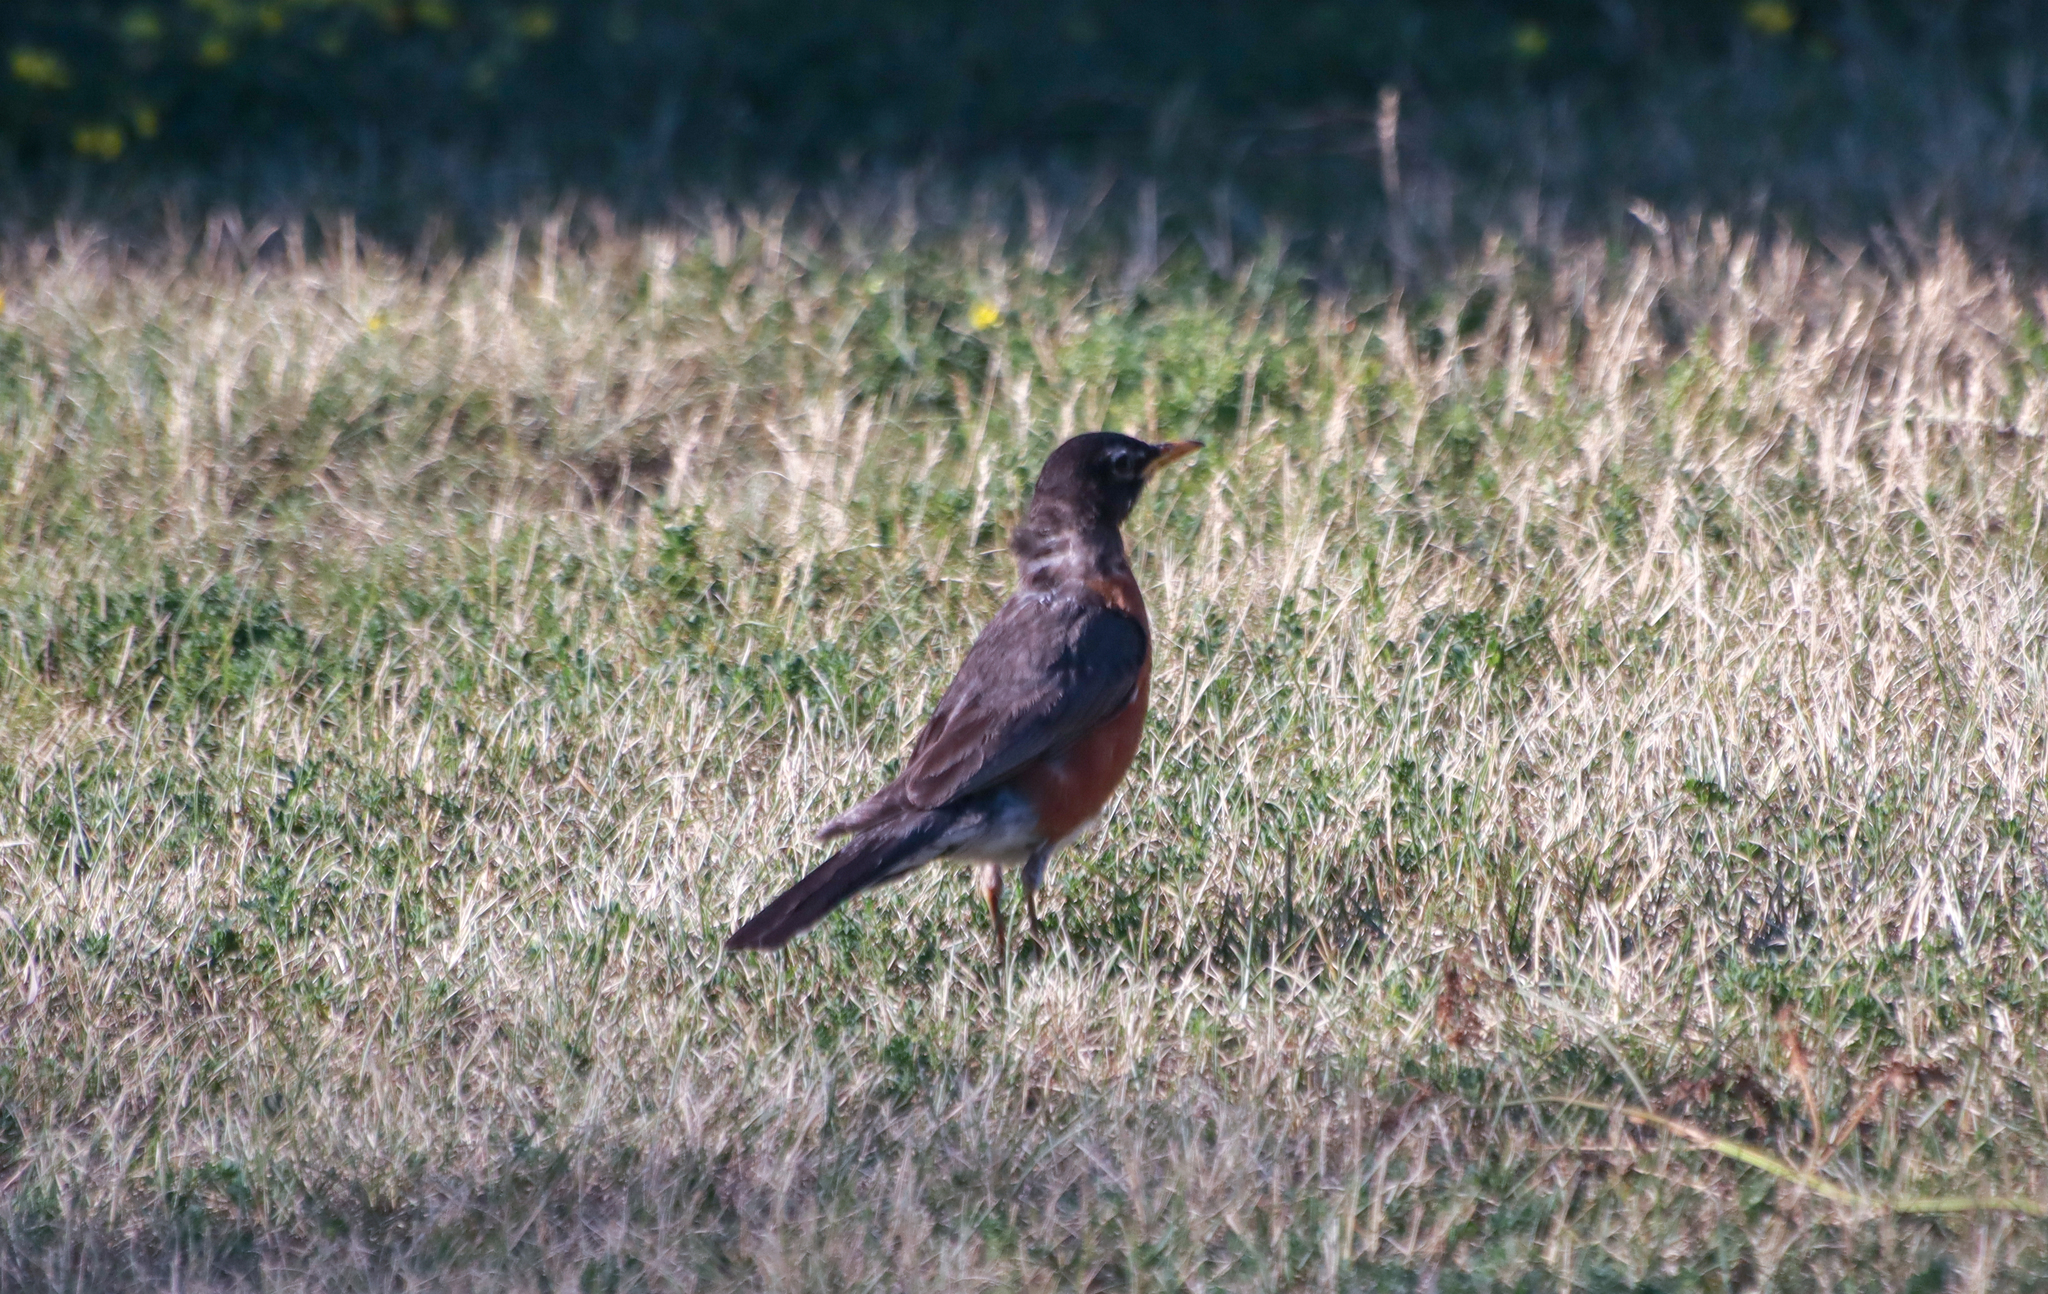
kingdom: Animalia
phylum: Chordata
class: Aves
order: Passeriformes
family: Turdidae
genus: Turdus
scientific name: Turdus migratorius
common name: American robin
